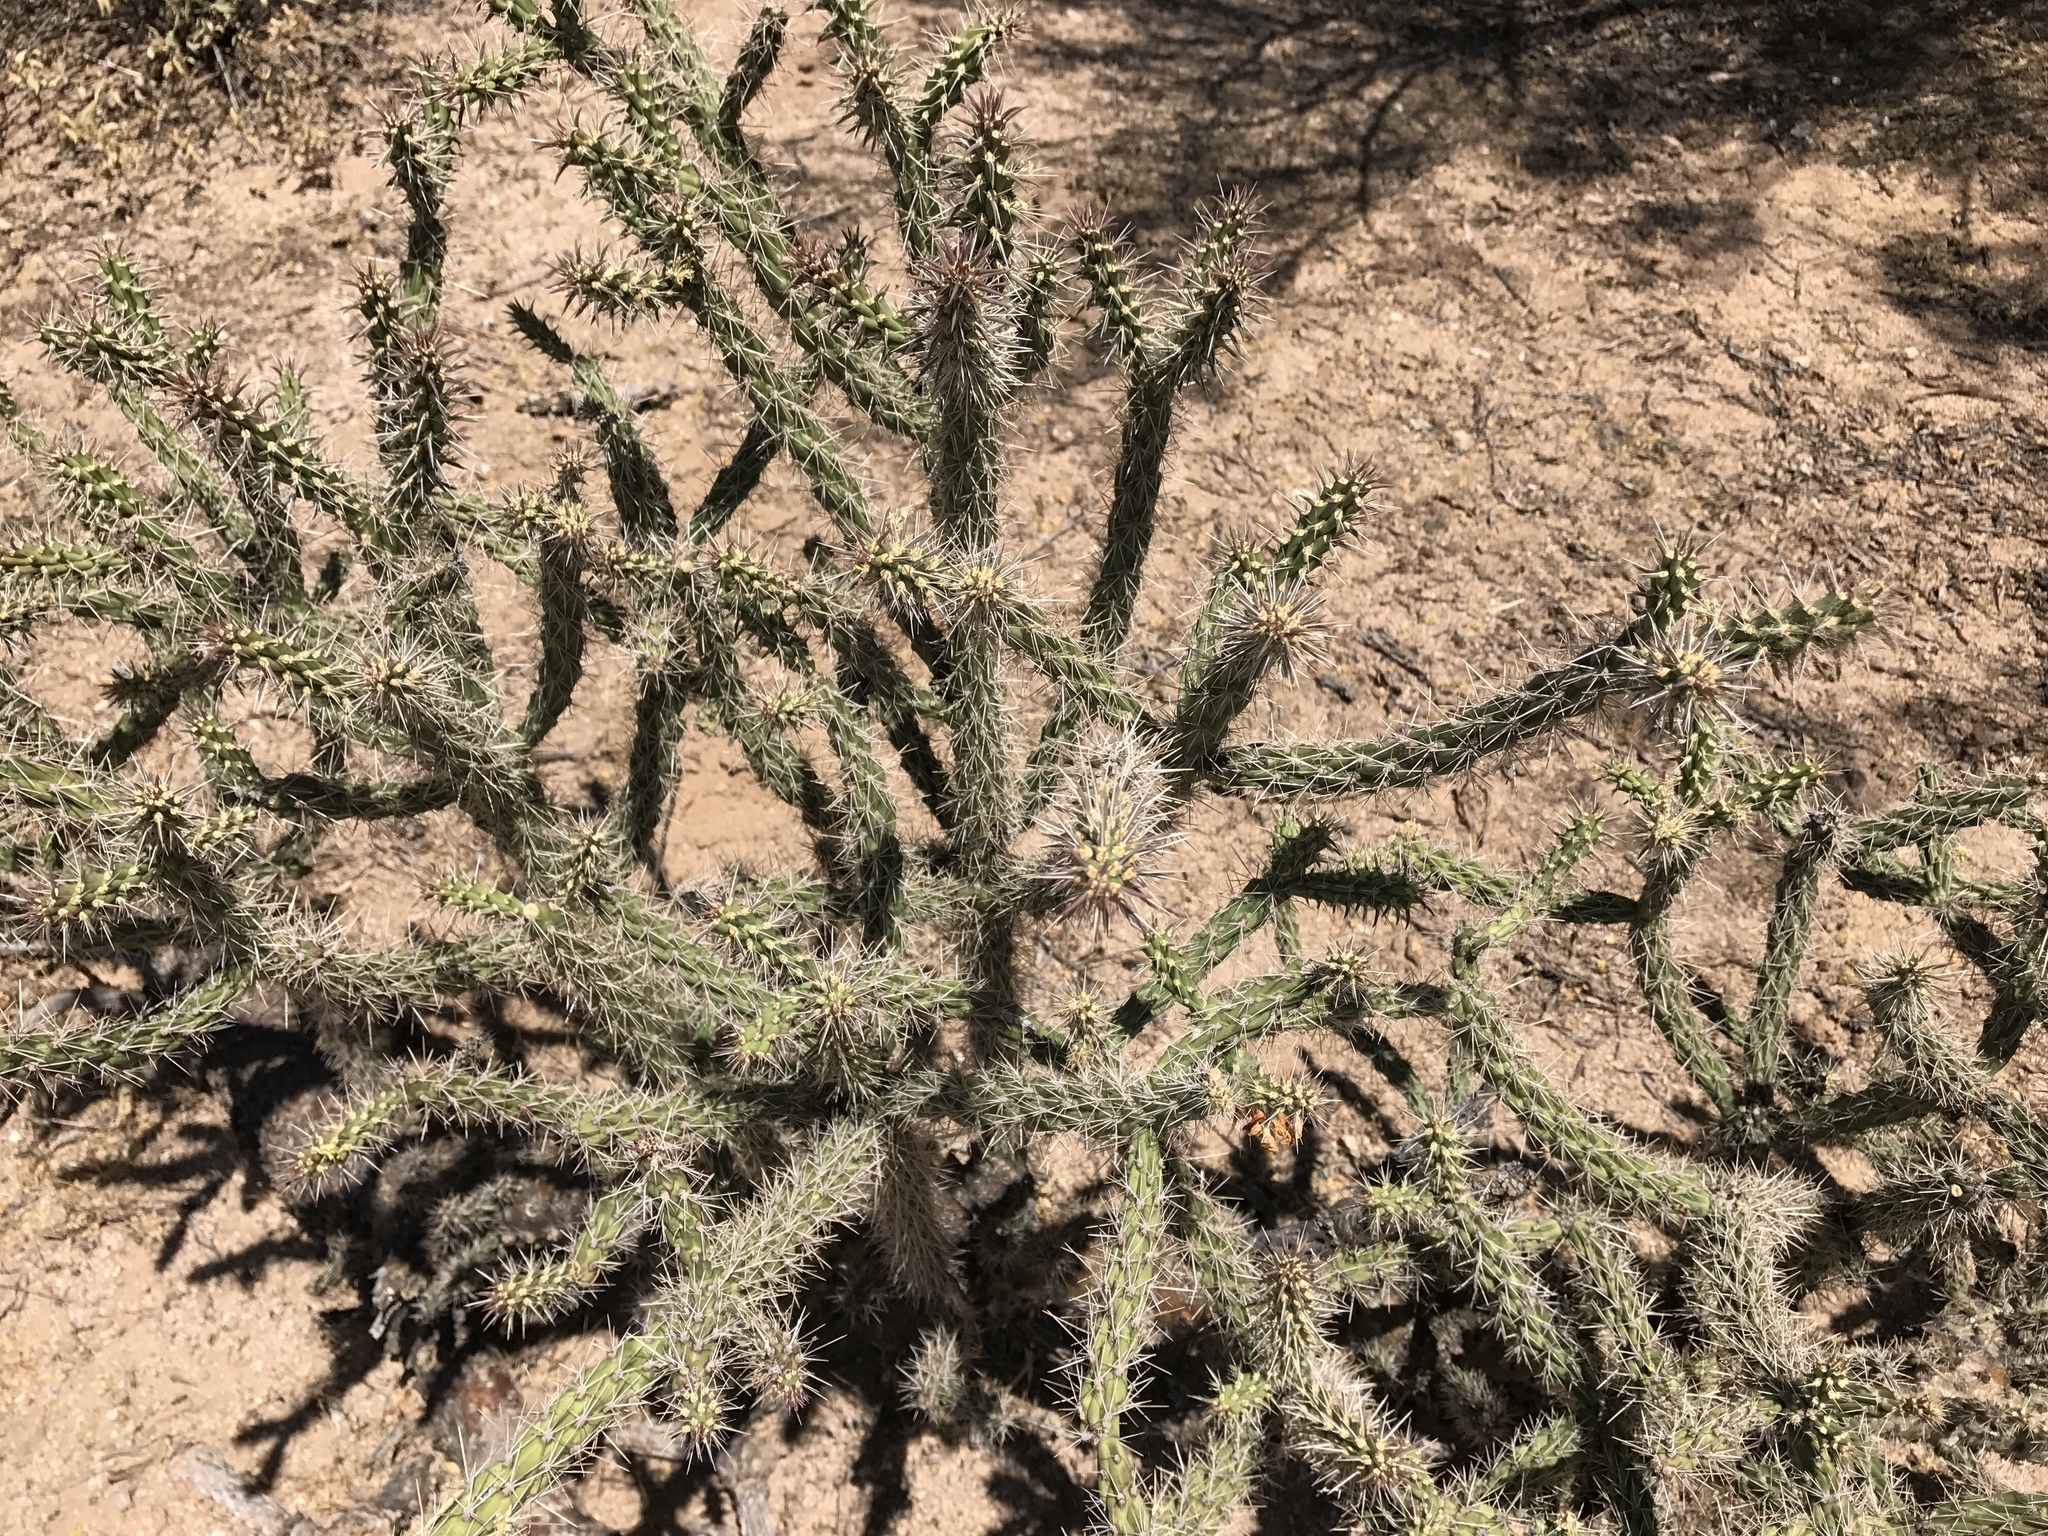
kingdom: Plantae
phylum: Tracheophyta
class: Magnoliopsida
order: Caryophyllales
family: Cactaceae
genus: Cylindropuntia
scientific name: Cylindropuntia imbricata
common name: Candelabrum cactus
